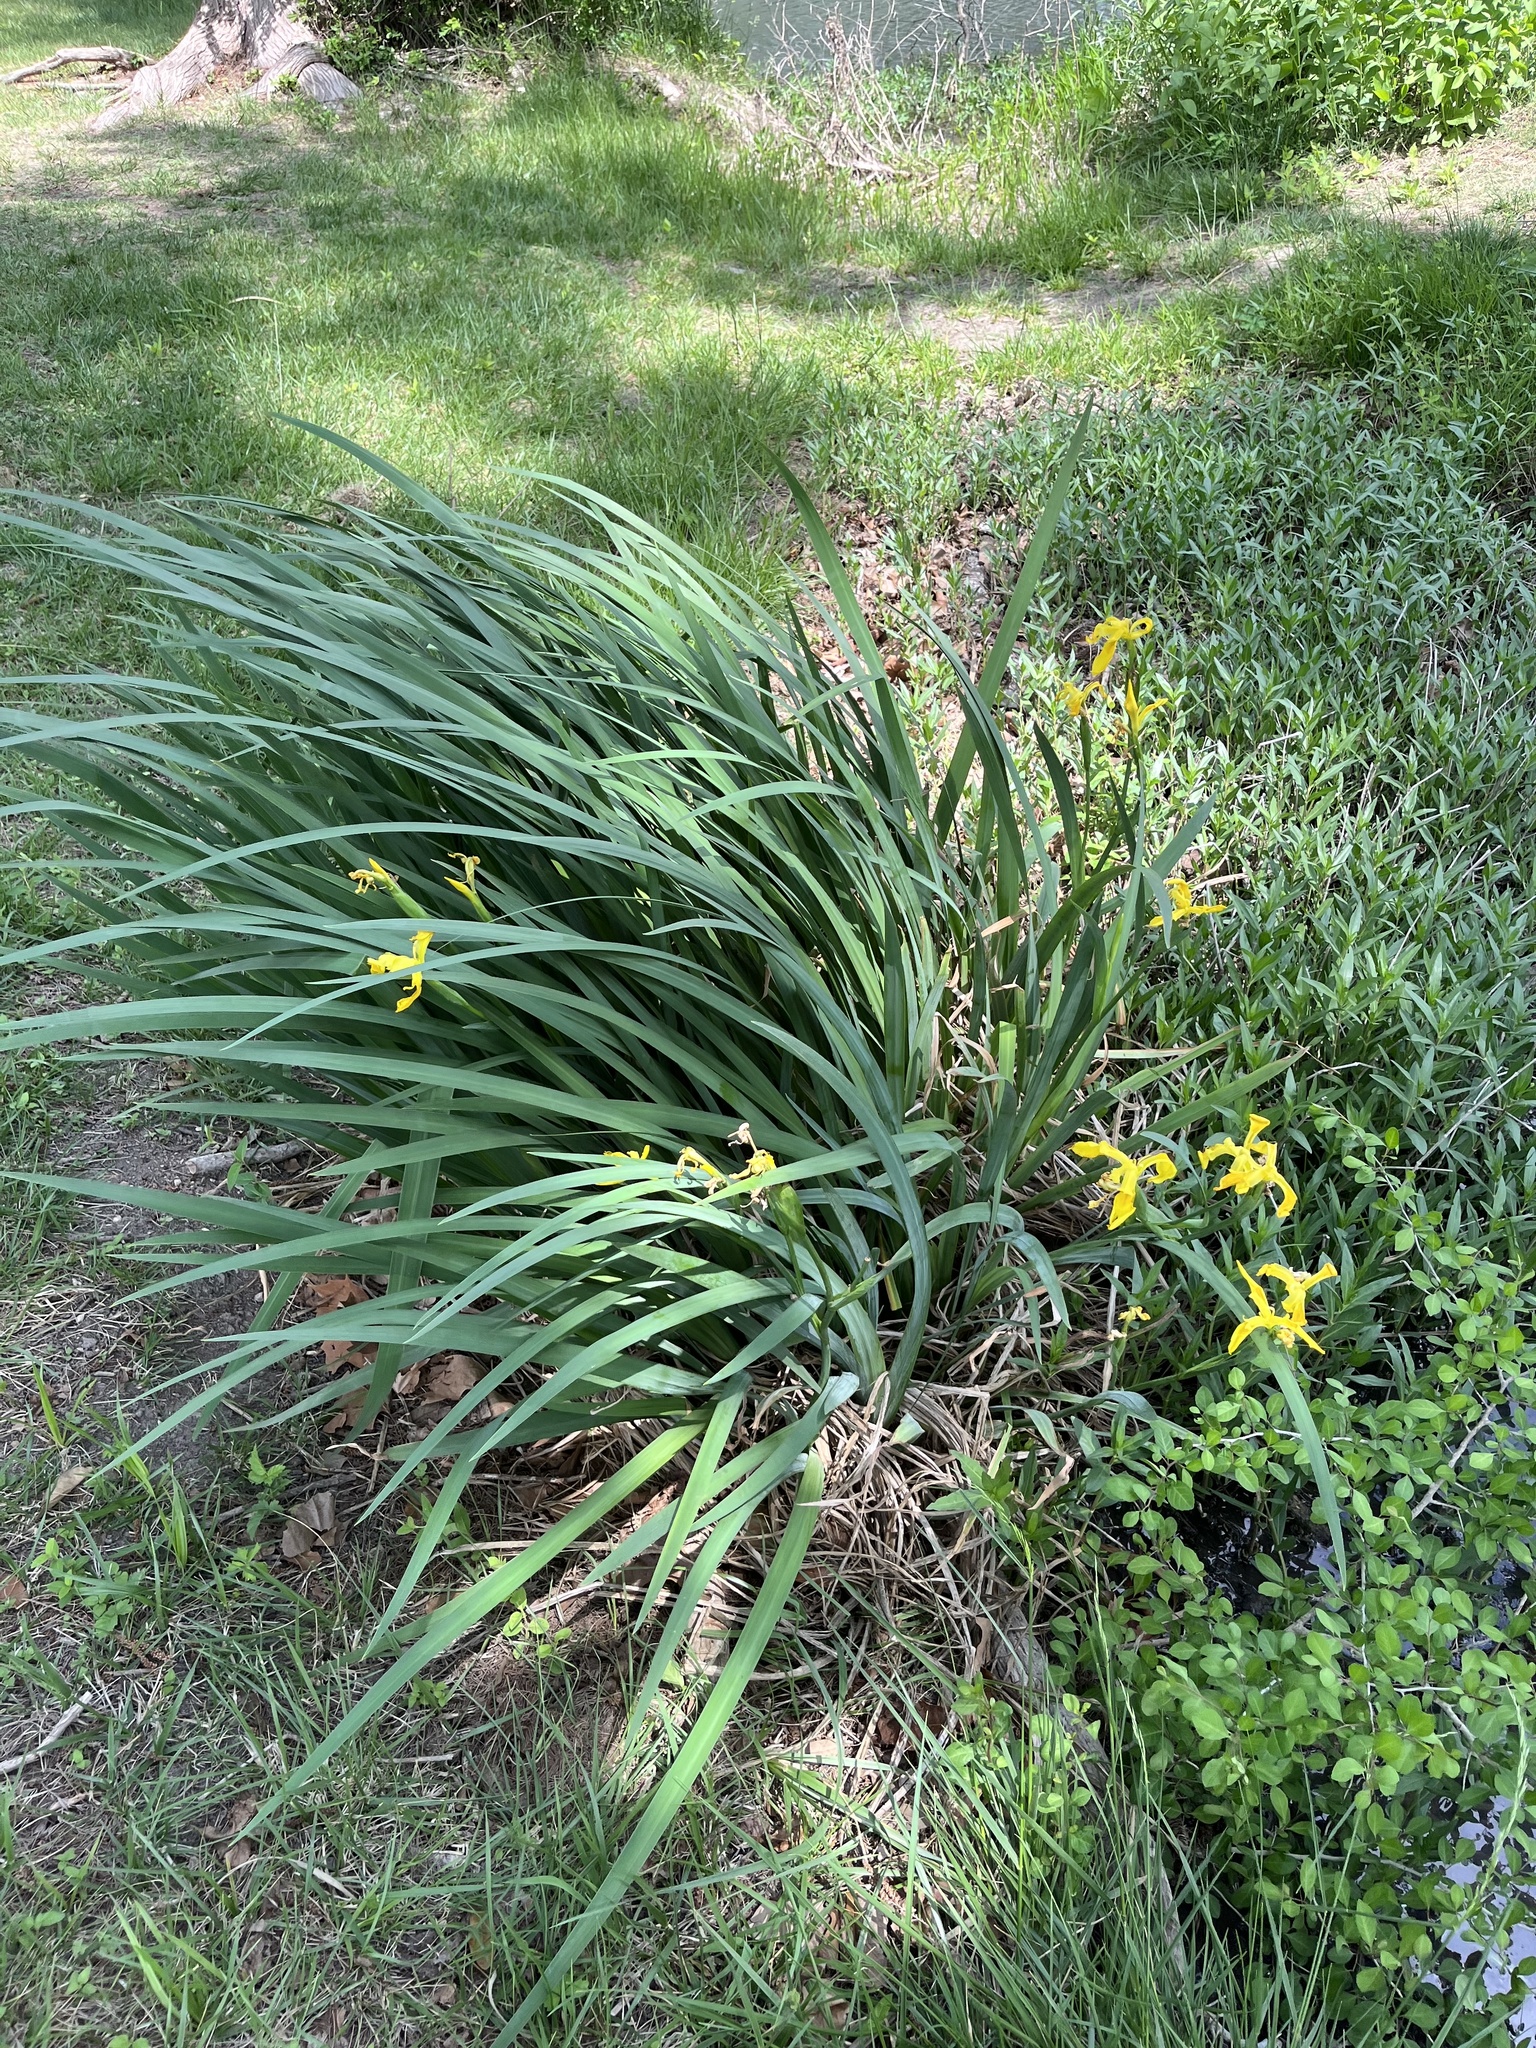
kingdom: Plantae
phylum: Tracheophyta
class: Liliopsida
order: Asparagales
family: Iridaceae
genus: Iris
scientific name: Iris pseudacorus
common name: Yellow flag
